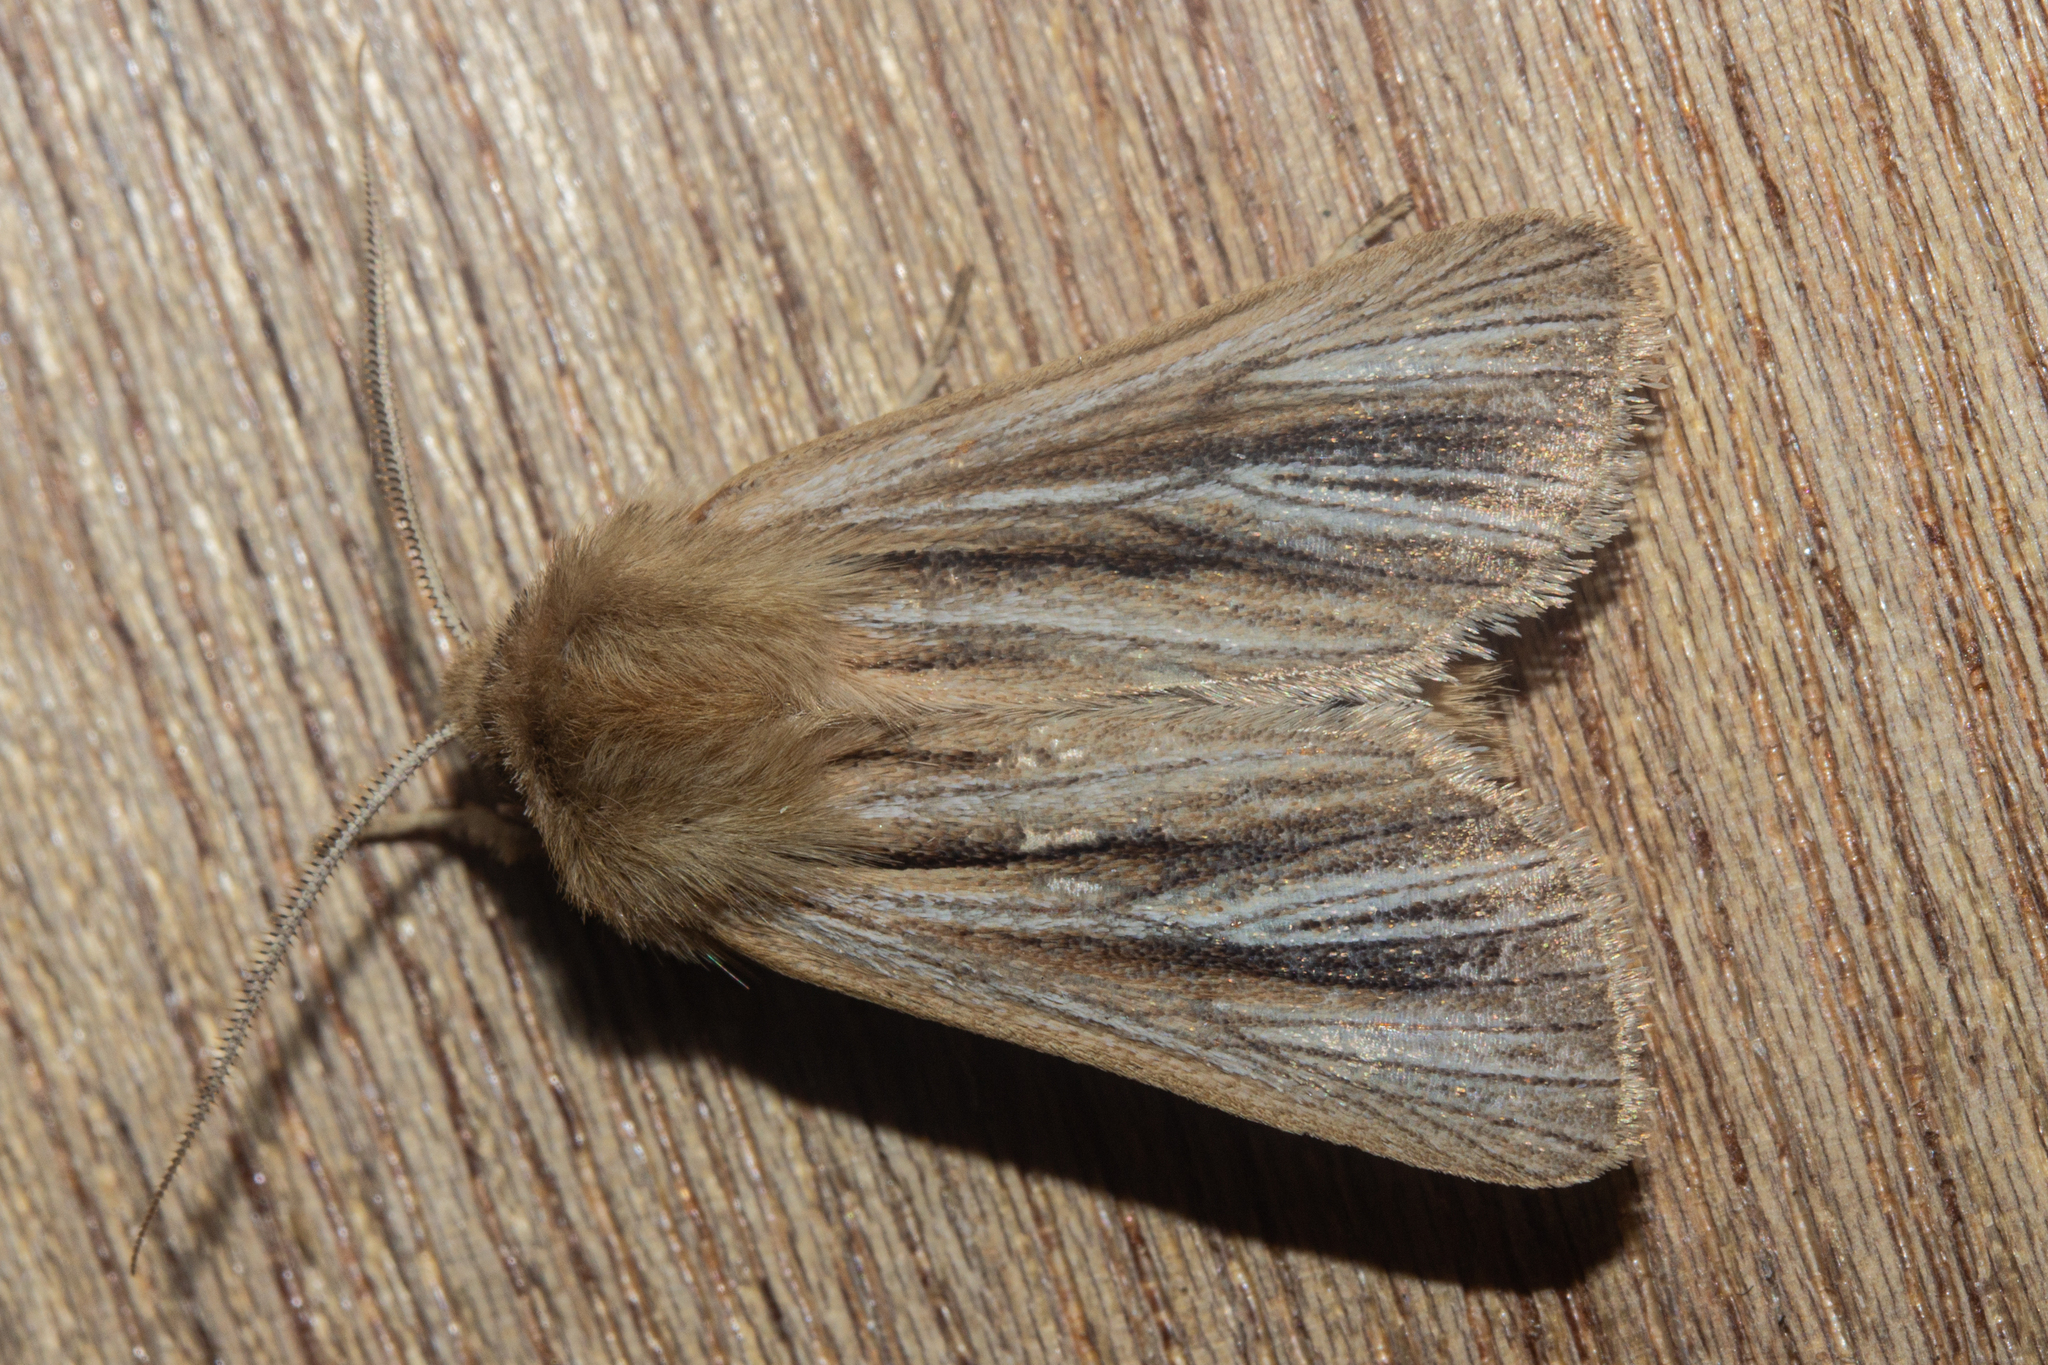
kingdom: Animalia
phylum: Arthropoda
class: Insecta
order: Lepidoptera
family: Noctuidae
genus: Ichneutica
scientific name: Ichneutica
